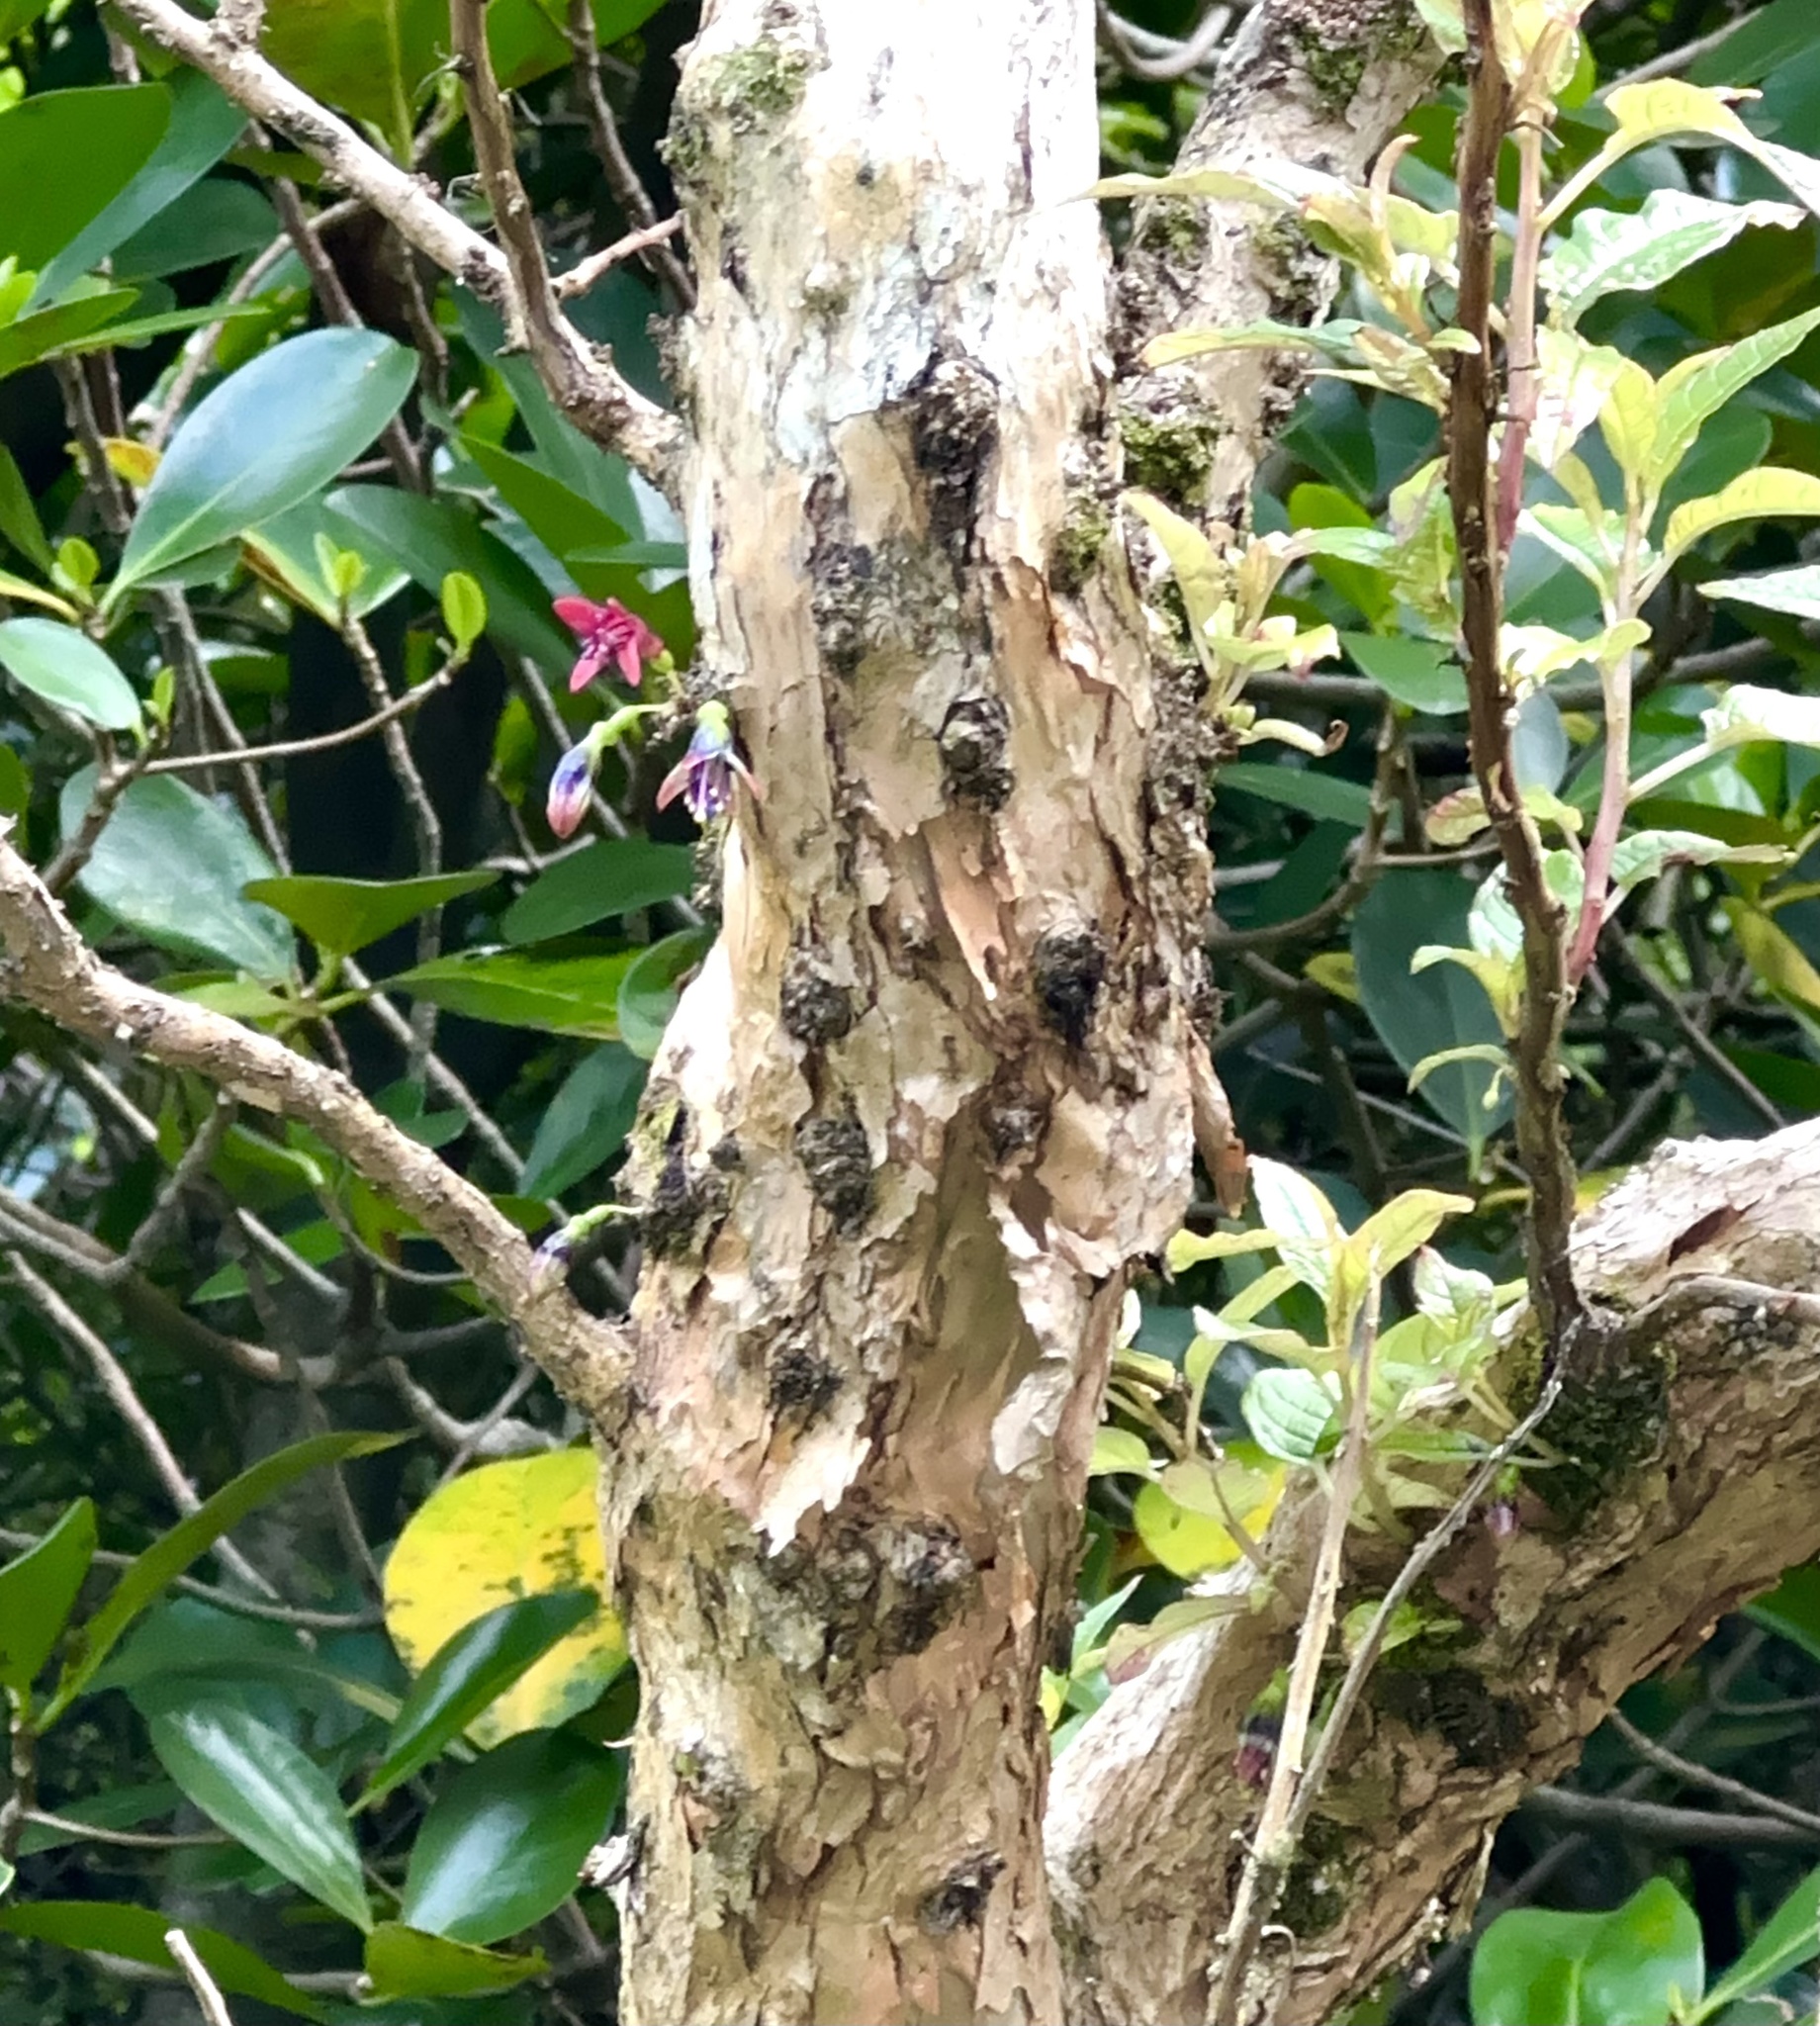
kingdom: Plantae
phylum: Tracheophyta
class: Magnoliopsida
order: Myrtales
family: Onagraceae
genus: Fuchsia
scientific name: Fuchsia excorticata
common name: Tree fuchsia
